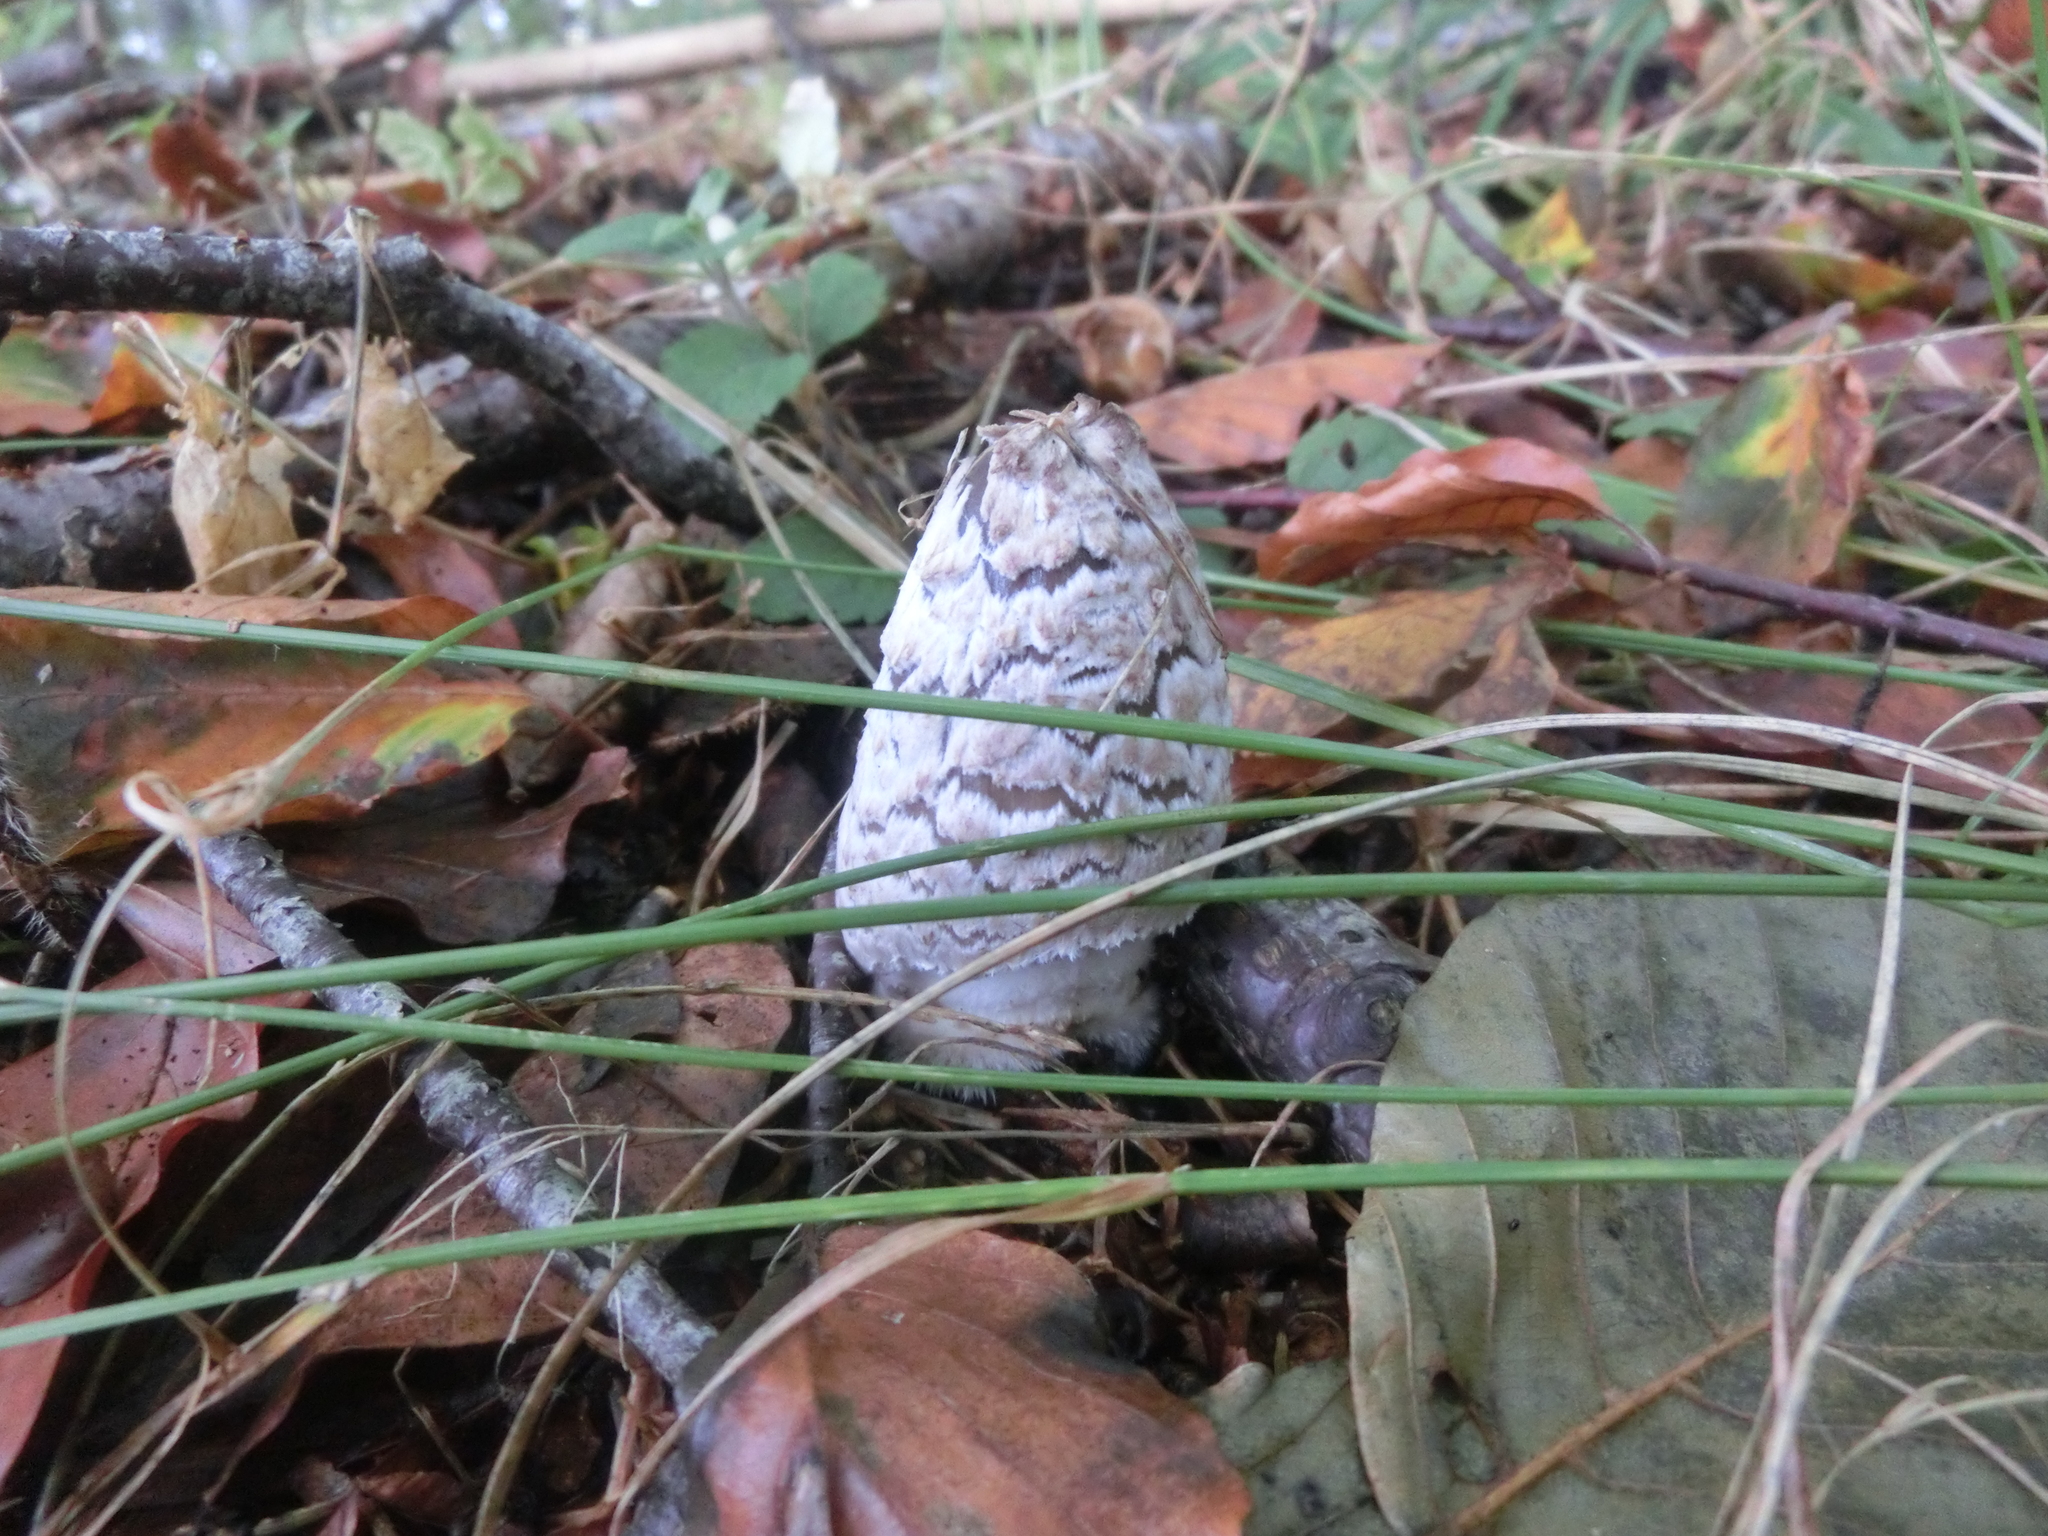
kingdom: Fungi
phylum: Basidiomycota
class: Agaricomycetes
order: Agaricales
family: Psathyrellaceae
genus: Coprinopsis
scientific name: Coprinopsis picacea
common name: Magpie inkcap
